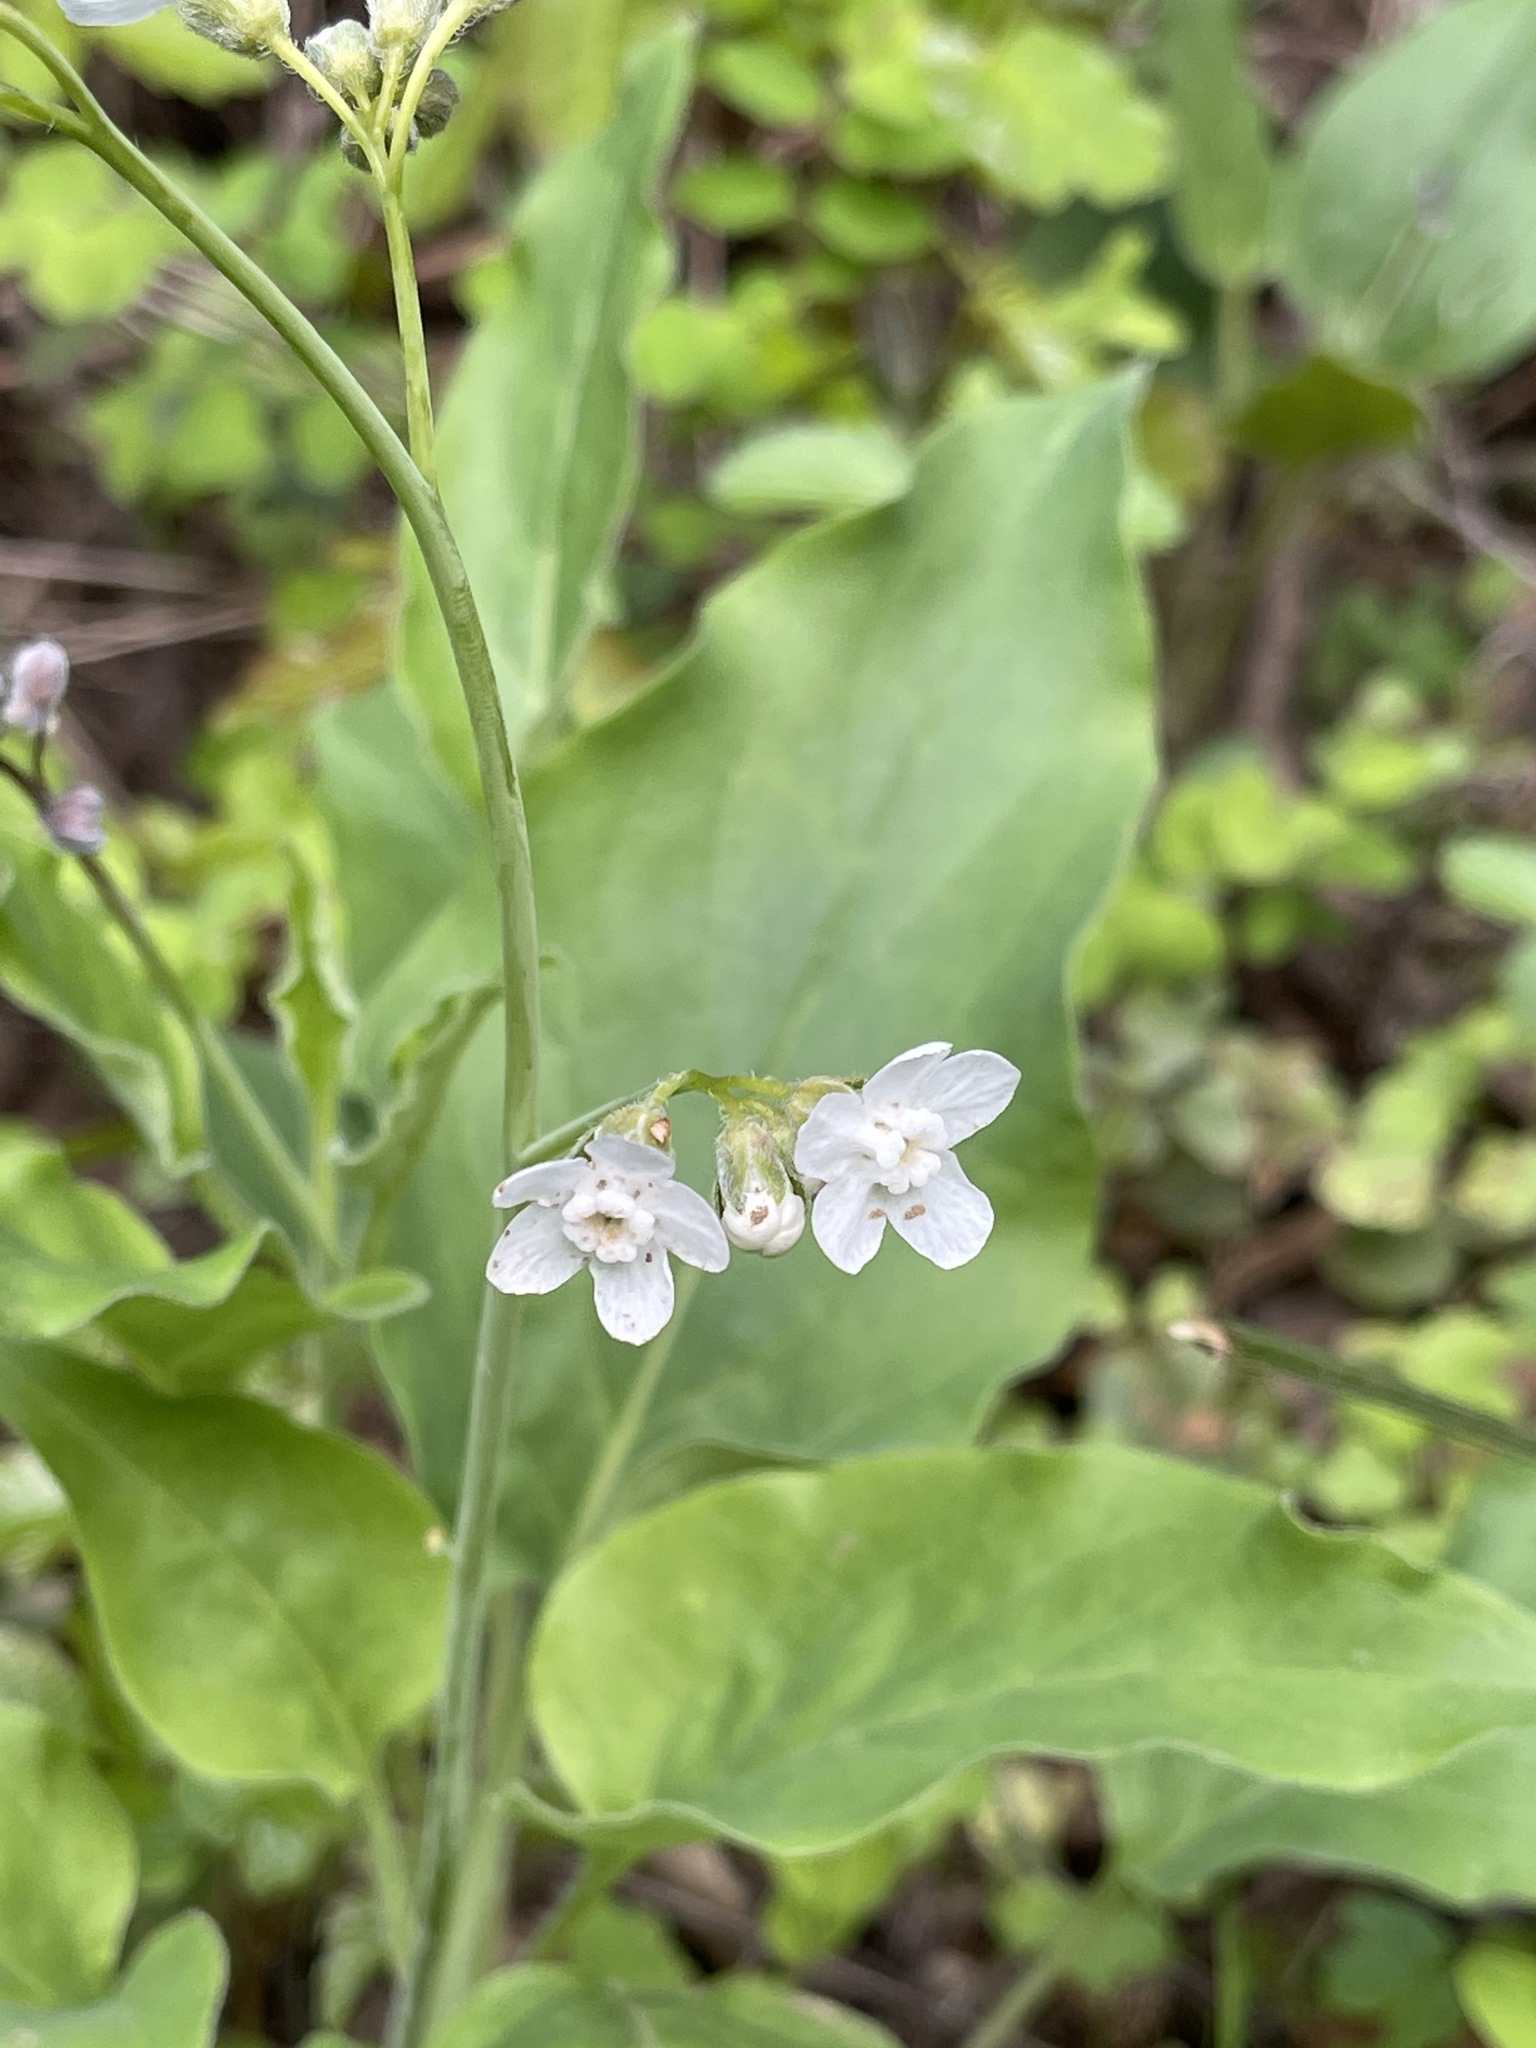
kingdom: Plantae
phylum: Tracheophyta
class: Magnoliopsida
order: Boraginales
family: Boraginaceae
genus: Adelinia
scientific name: Adelinia grande
